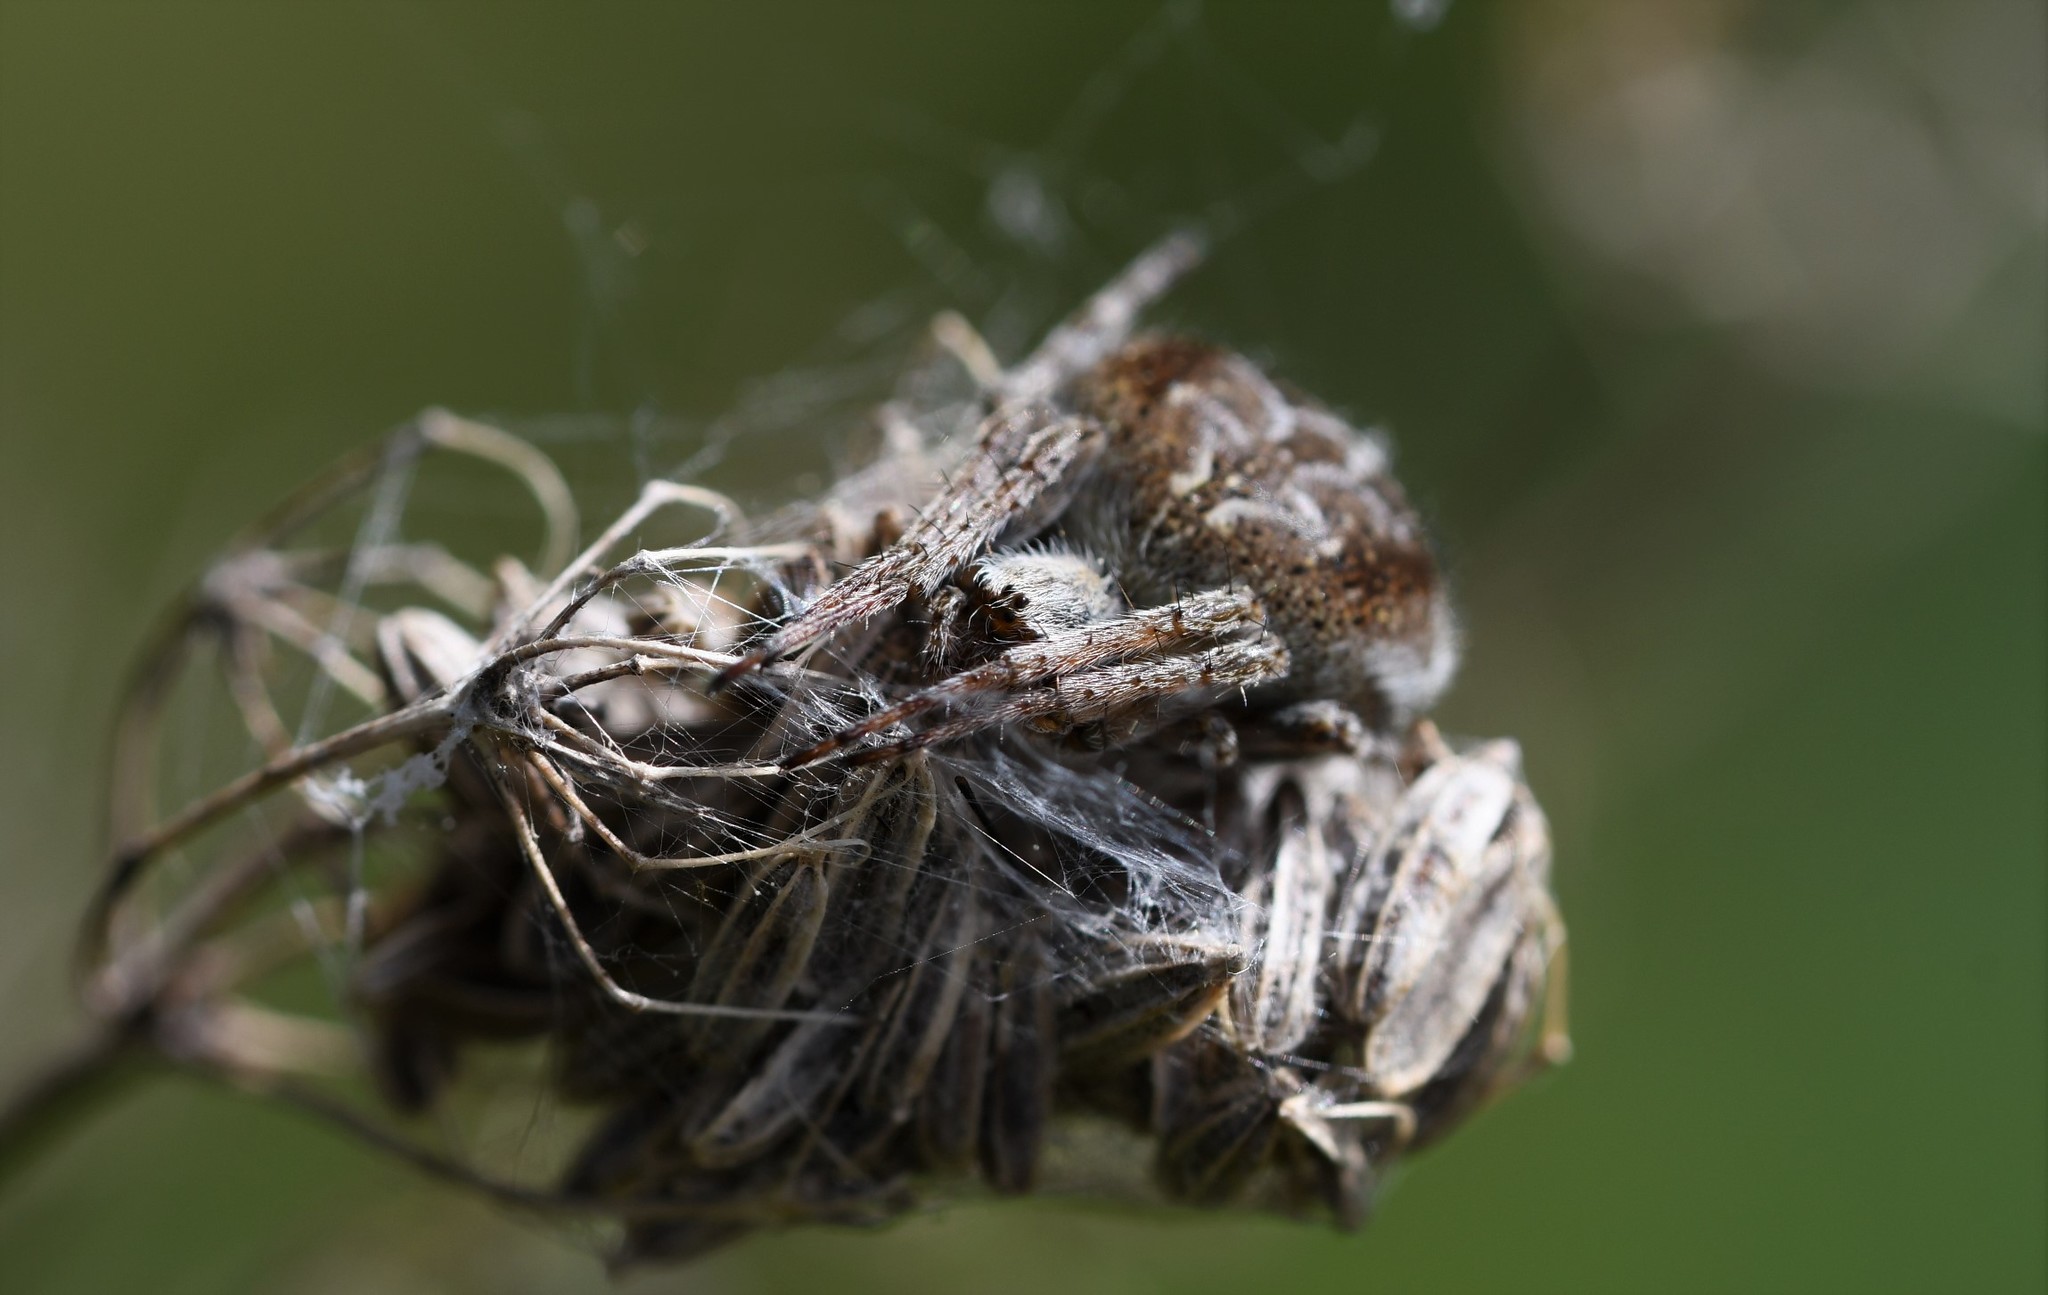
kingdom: Animalia
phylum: Arthropoda
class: Arachnida
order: Araneae
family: Araneidae
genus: Agalenatea
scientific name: Agalenatea redii
